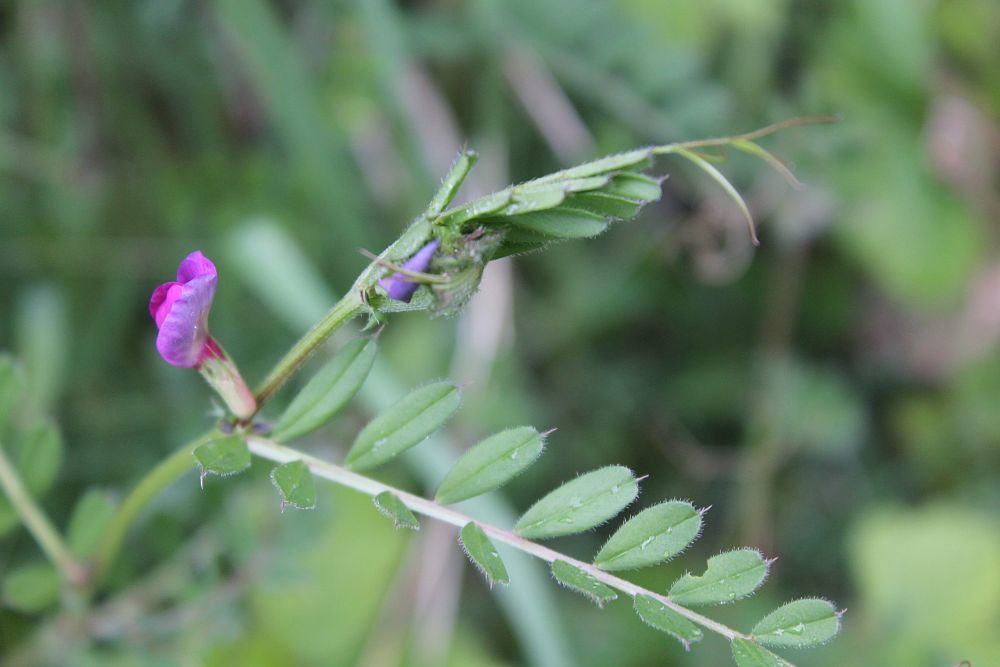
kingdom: Plantae
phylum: Tracheophyta
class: Magnoliopsida
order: Fabales
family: Fabaceae
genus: Vicia
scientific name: Vicia sativa
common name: Garden vetch
